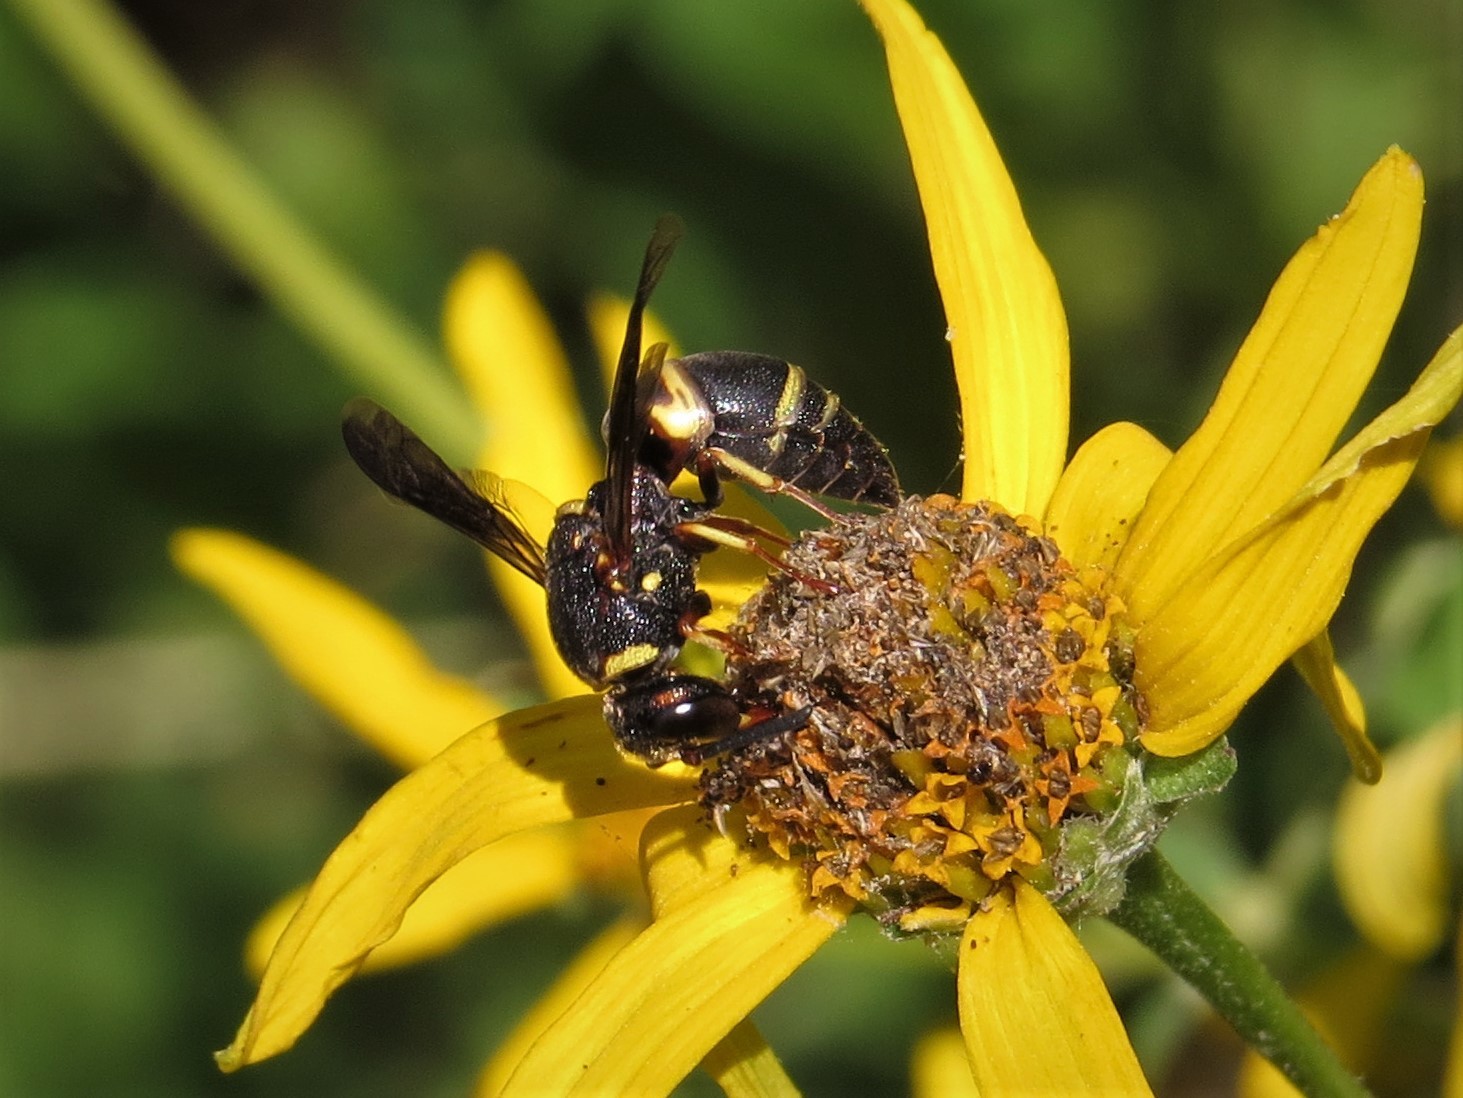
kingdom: Animalia
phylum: Arthropoda
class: Insecta
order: Hymenoptera
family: Eumenidae
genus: Euodynerus
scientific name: Euodynerus hidalgo
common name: Wasp
